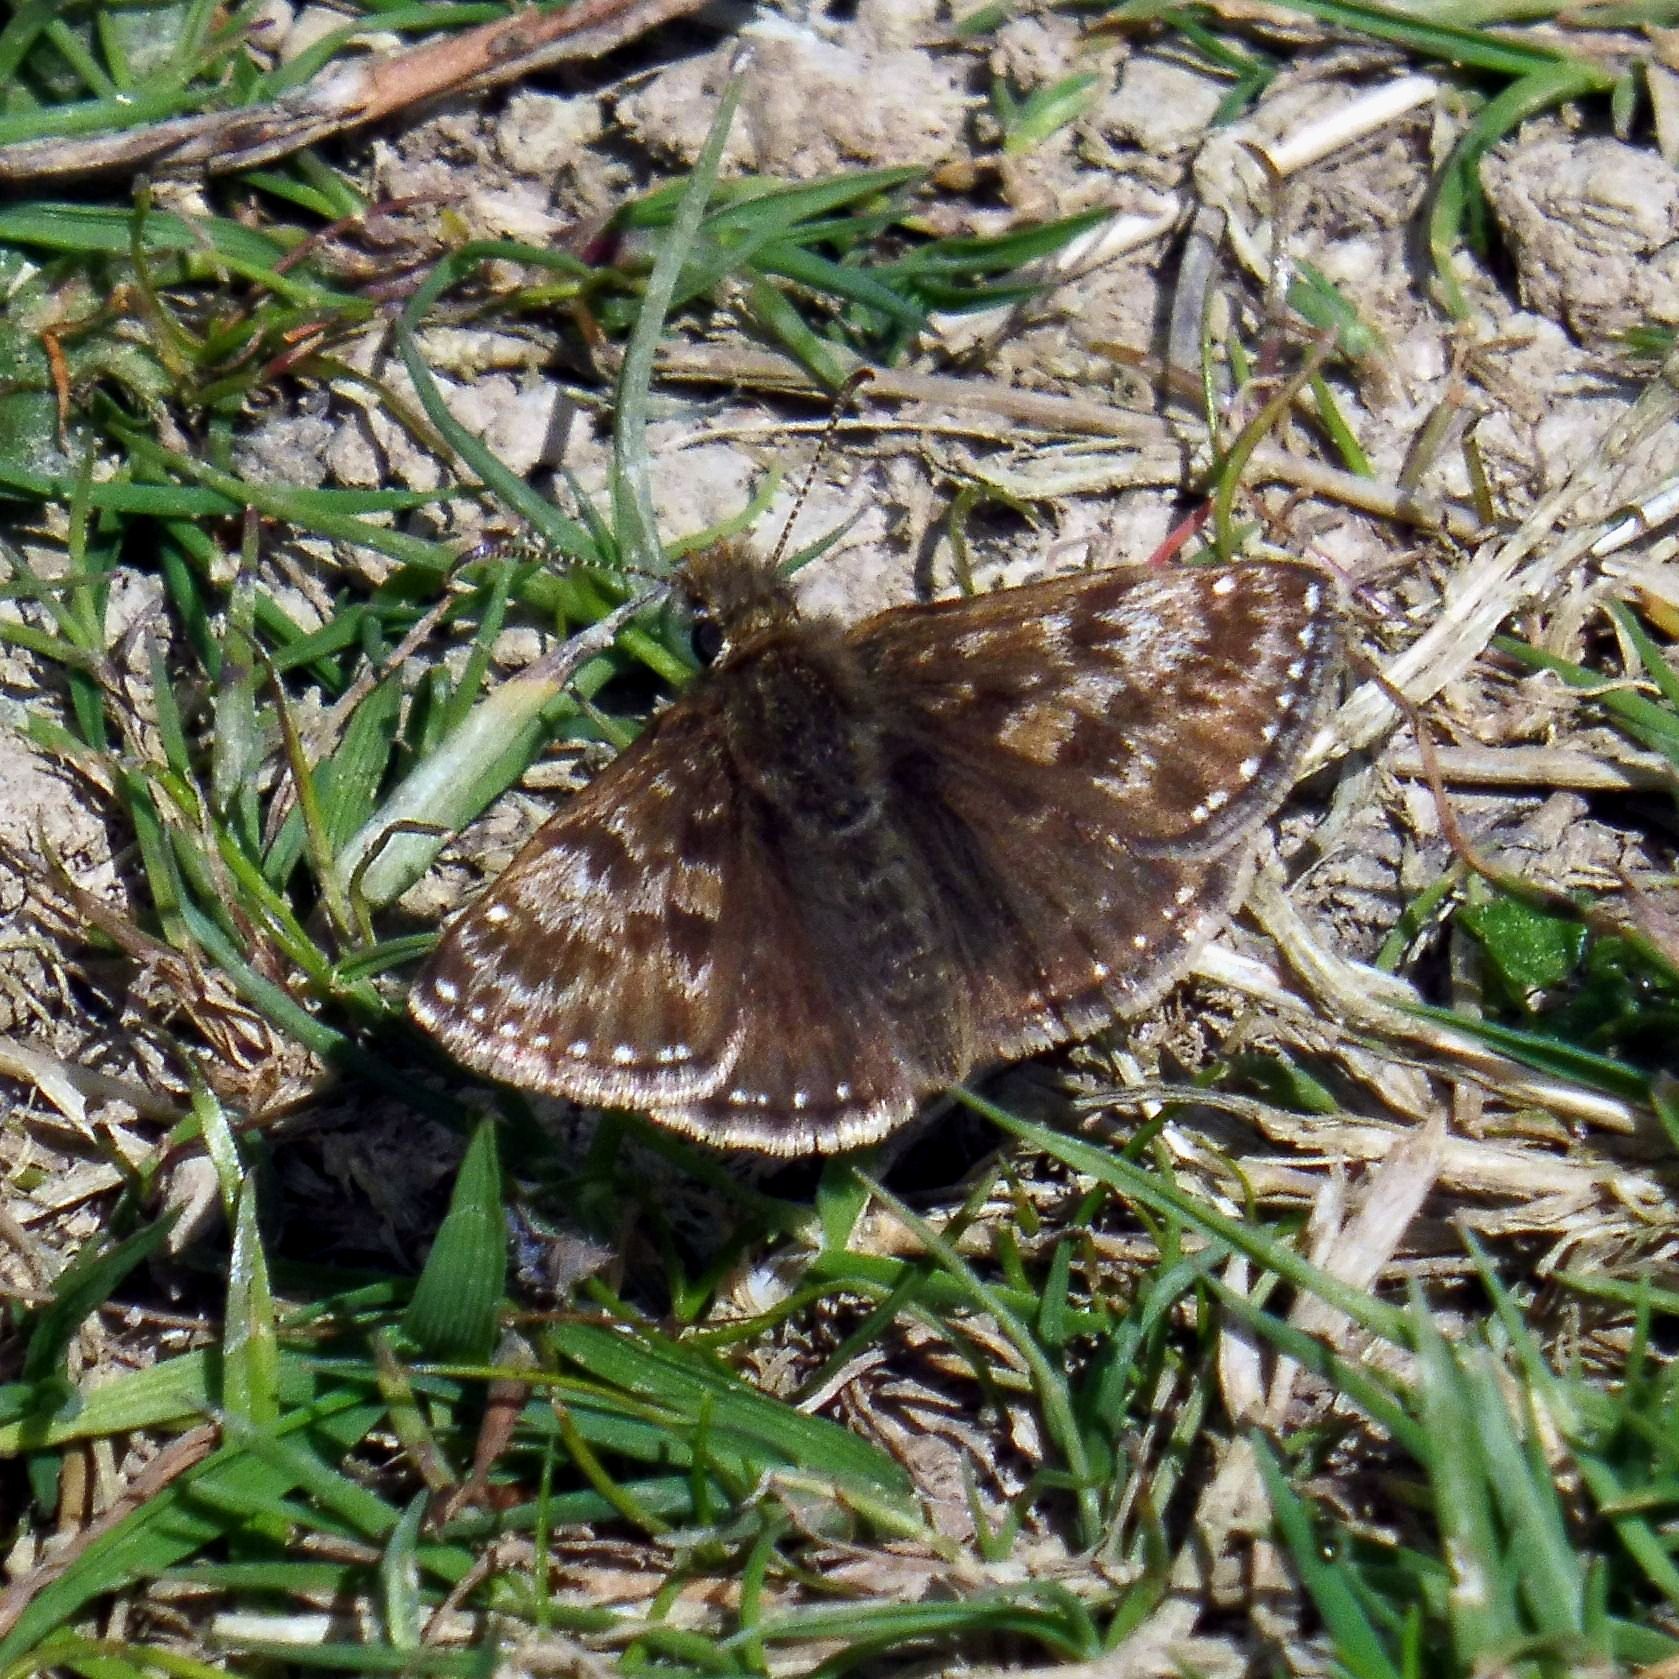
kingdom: Animalia
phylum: Arthropoda
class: Insecta
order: Lepidoptera
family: Hesperiidae
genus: Erynnis
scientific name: Erynnis tages
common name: Dingy skipper
